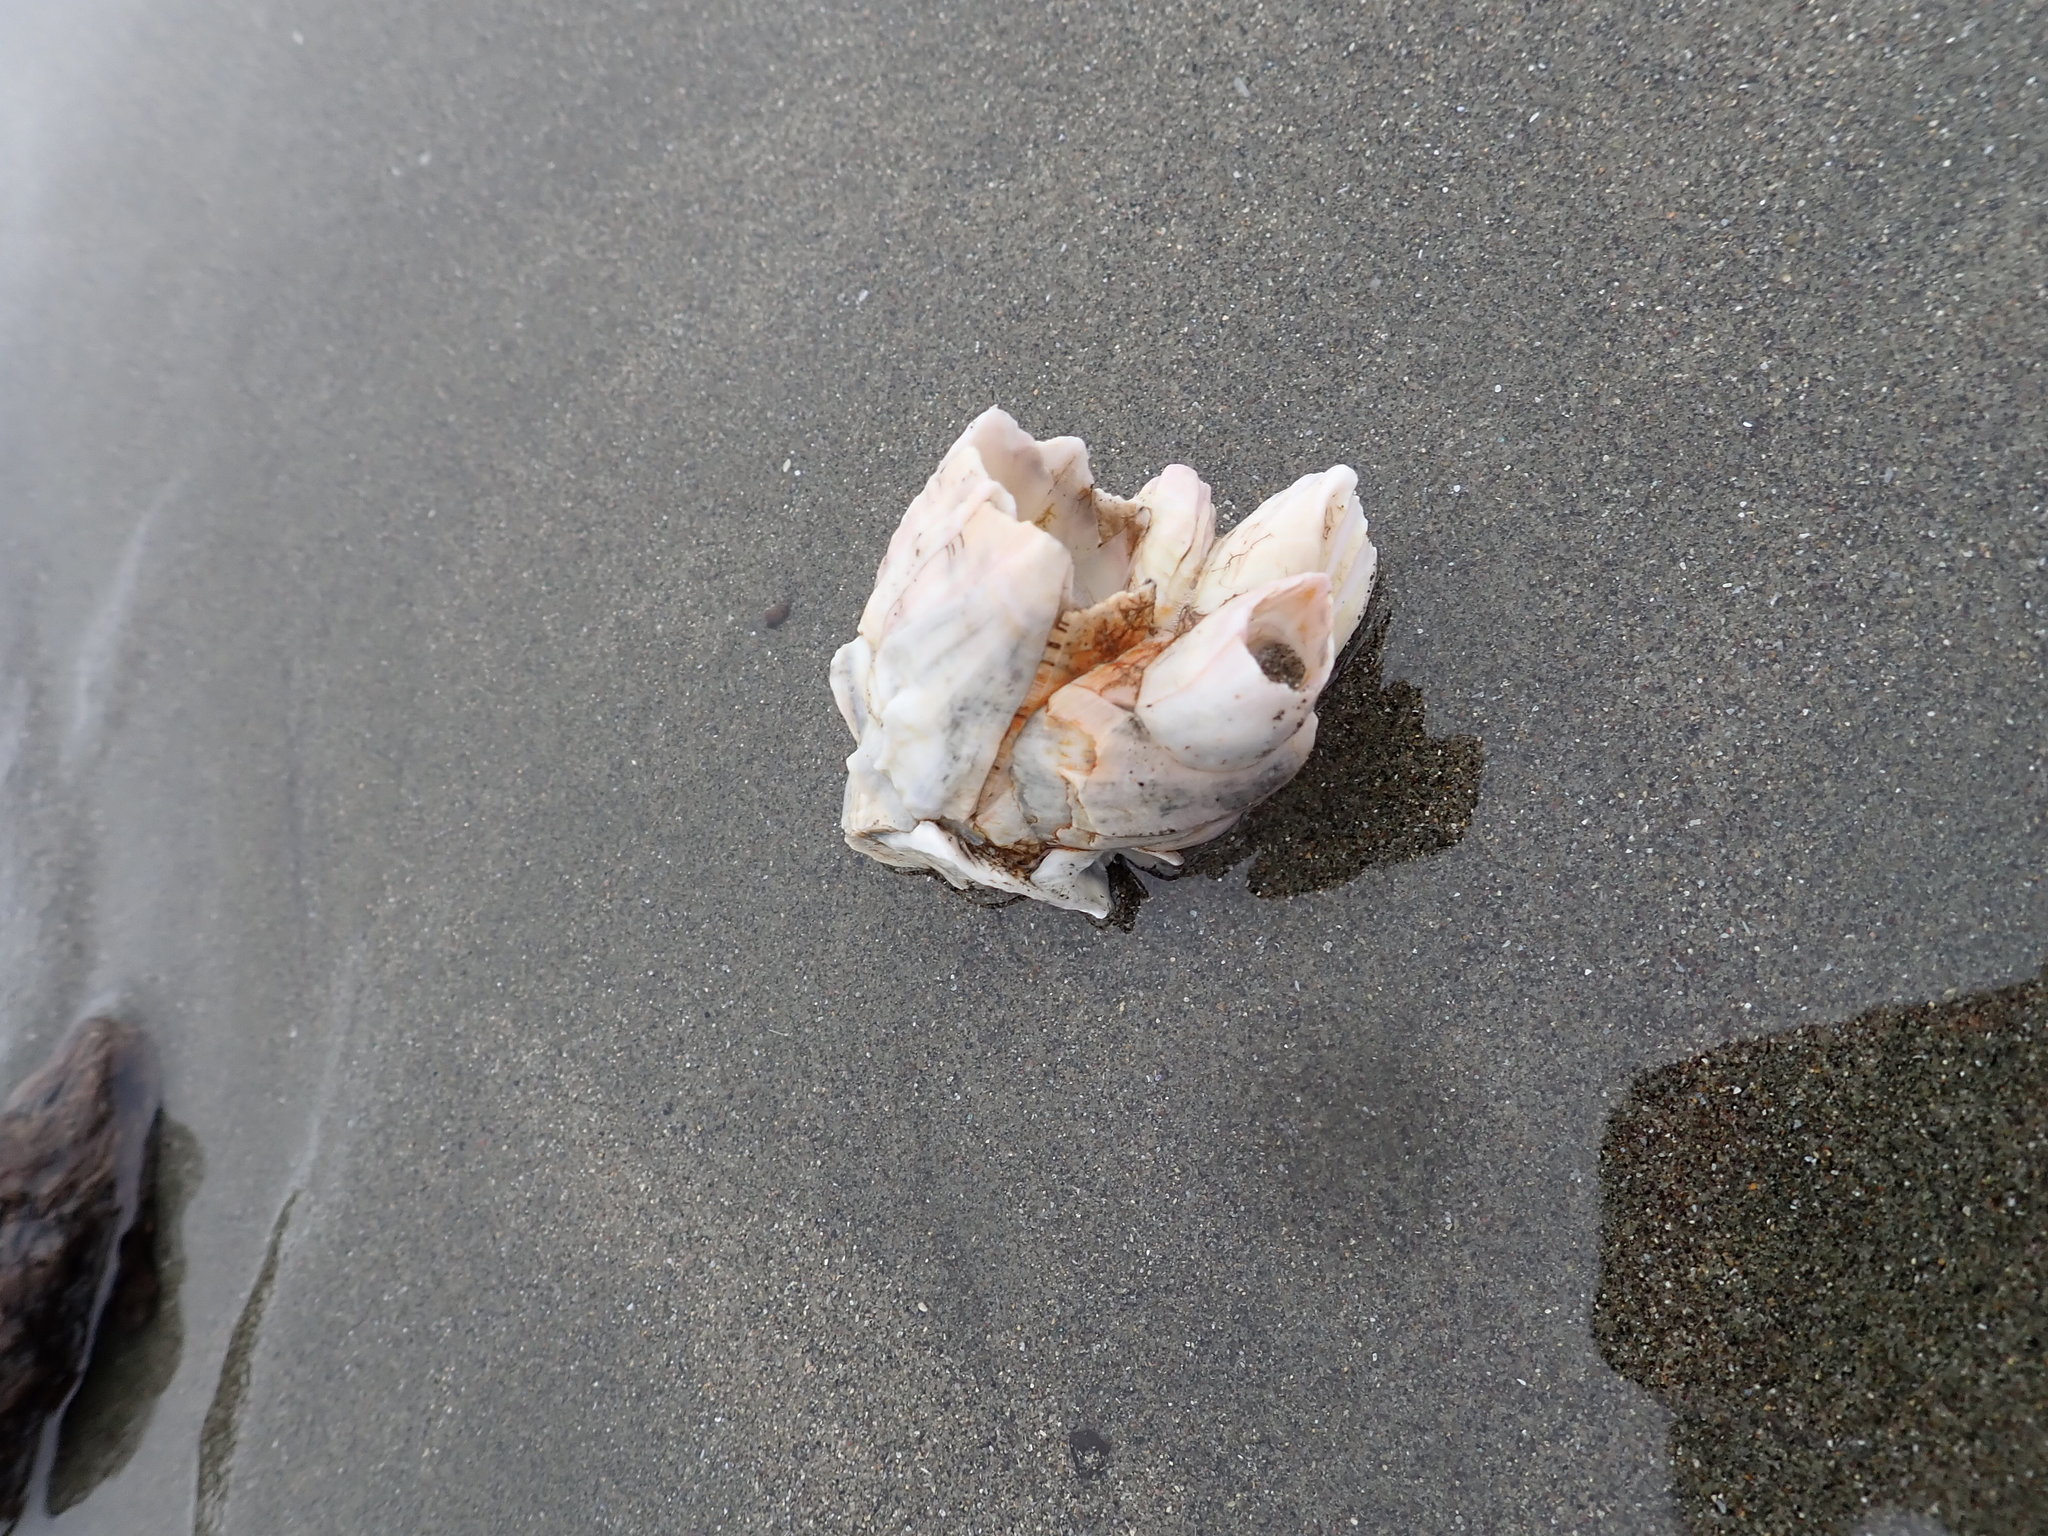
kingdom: Animalia
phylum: Arthropoda
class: Maxillopoda
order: Sessilia
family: Balanidae
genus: Notomegabalanus
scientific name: Notomegabalanus decorus
